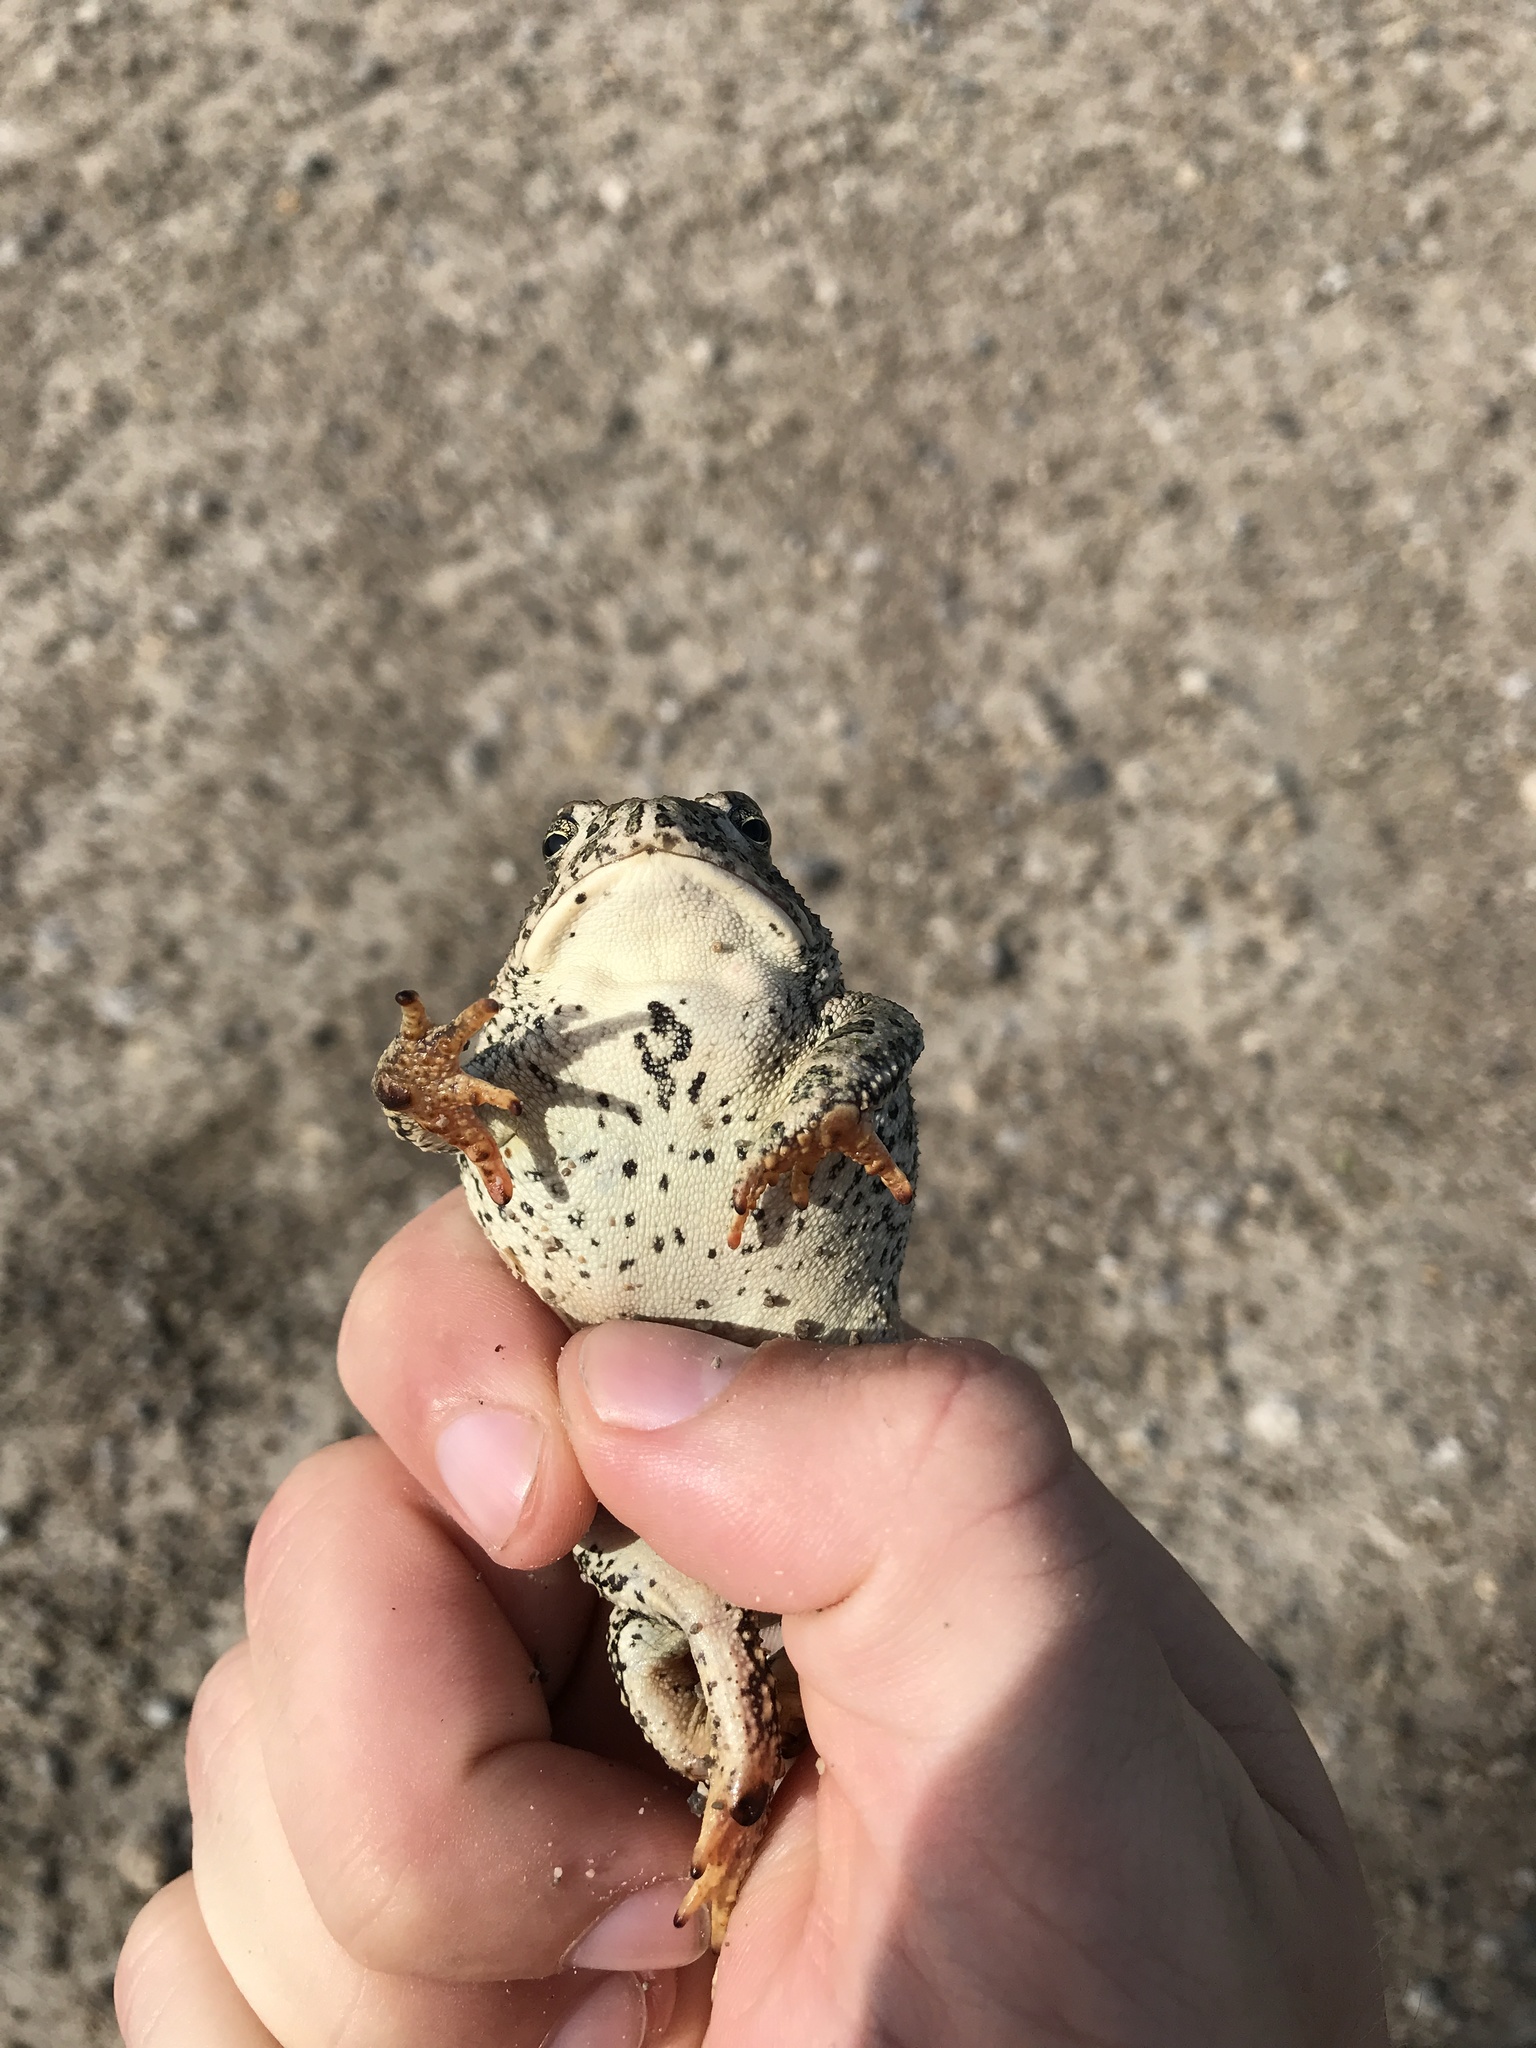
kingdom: Animalia
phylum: Chordata
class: Amphibia
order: Anura
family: Bufonidae
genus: Anaxyrus
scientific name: Anaxyrus woodhousii
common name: Woodhouse's toad
